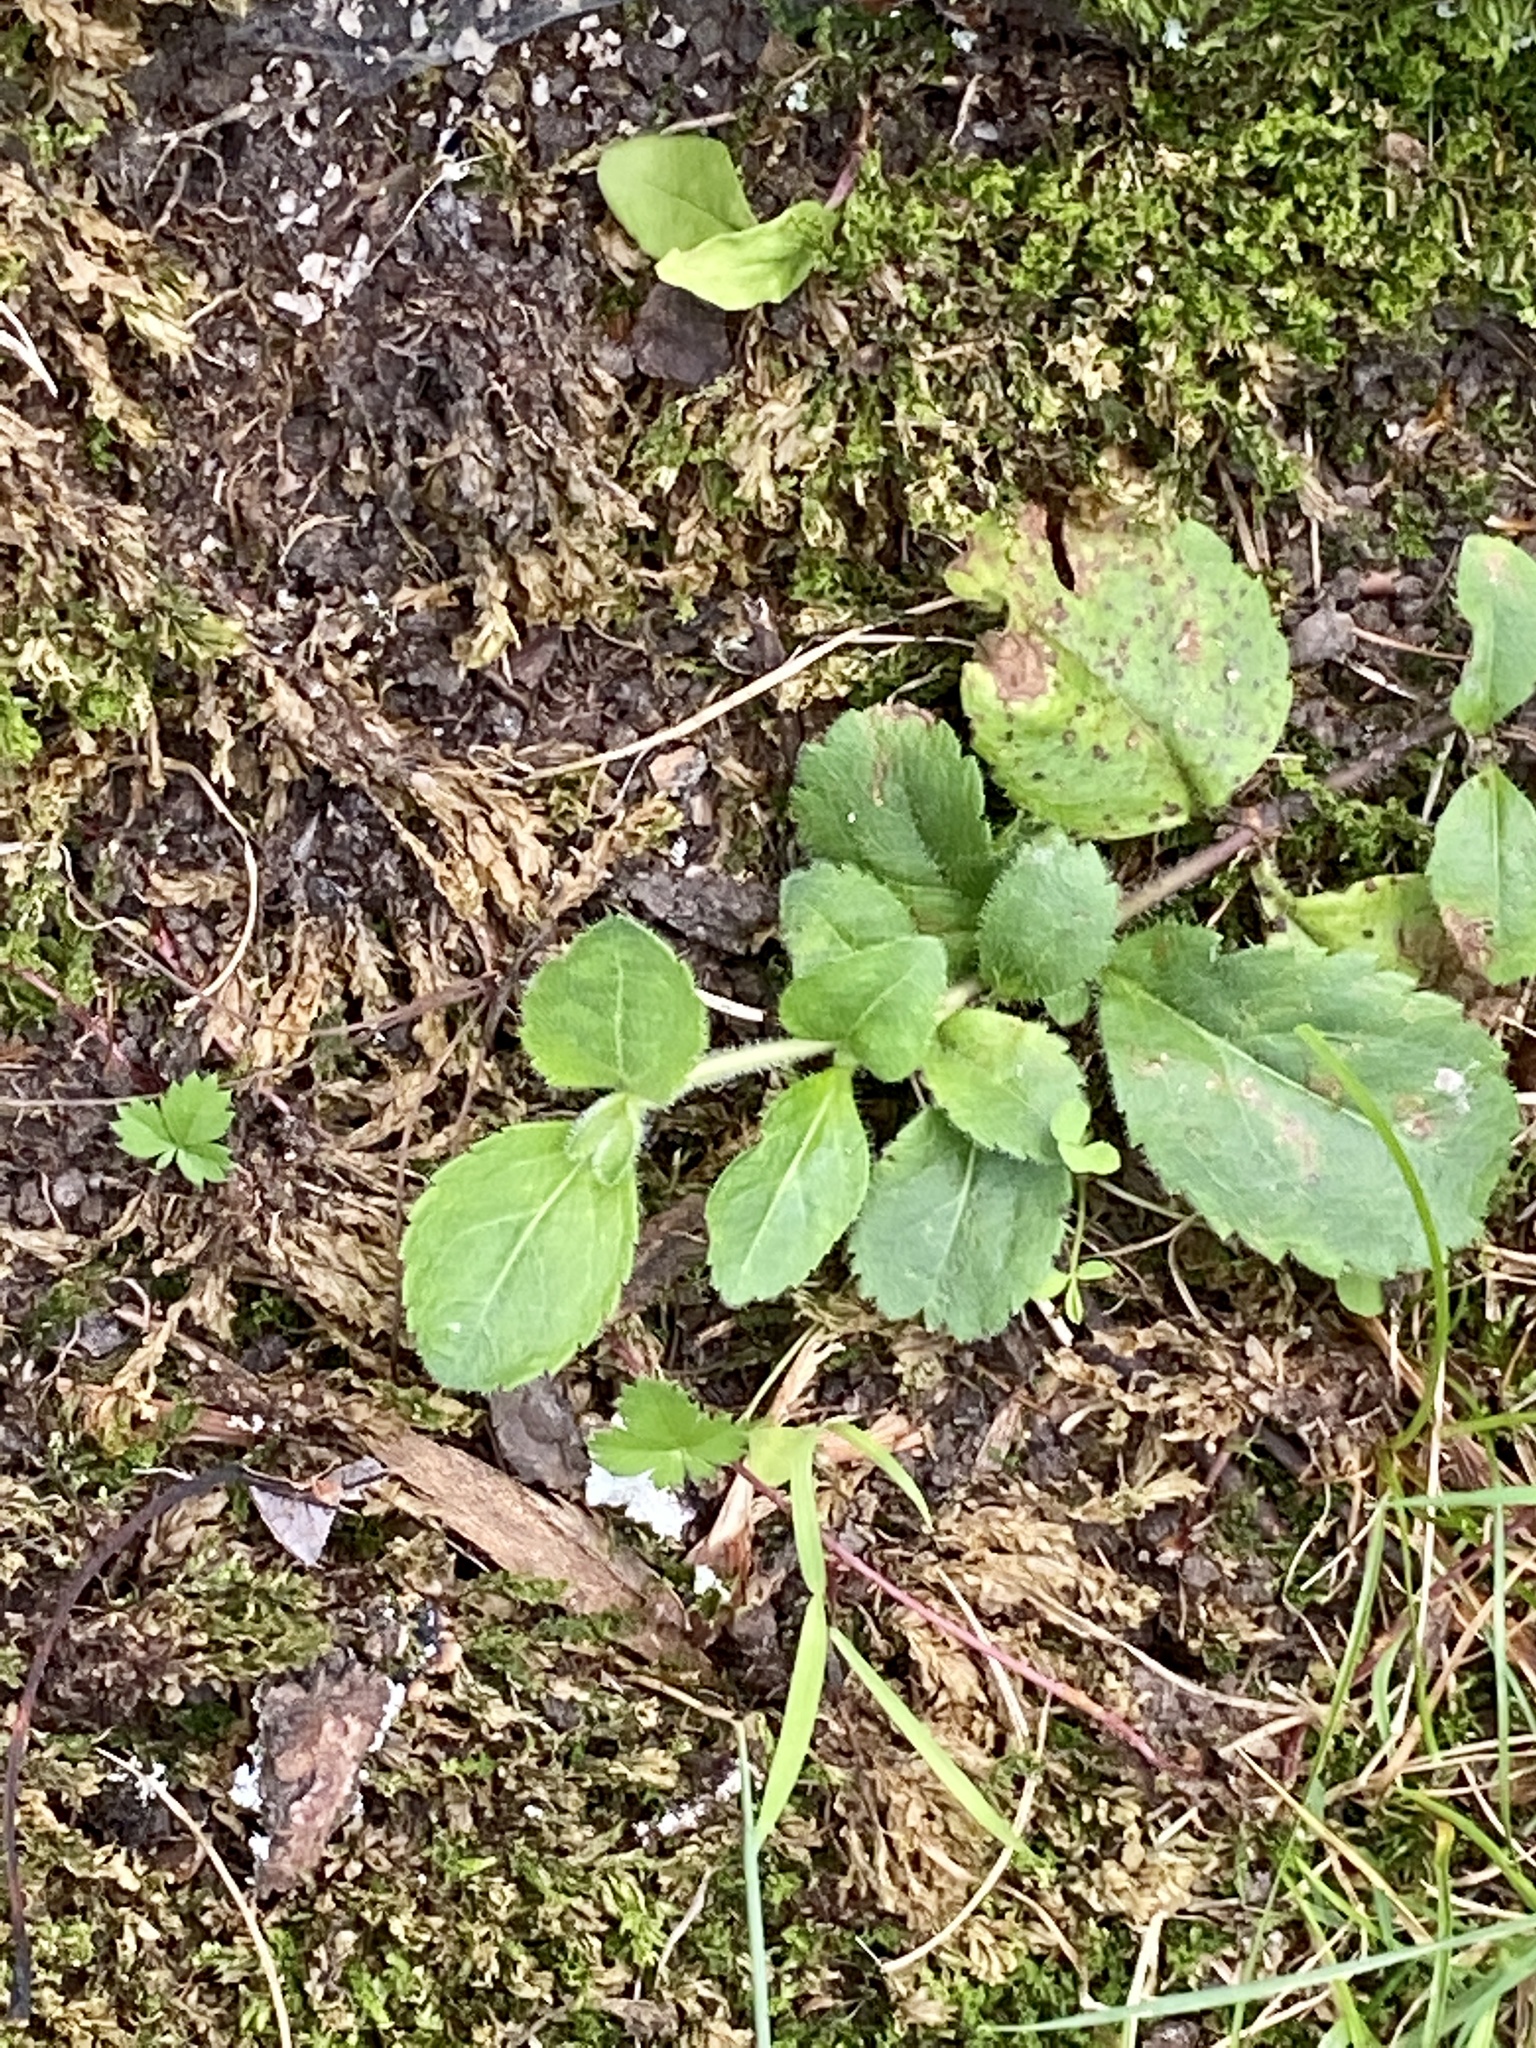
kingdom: Plantae
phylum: Tracheophyta
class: Magnoliopsida
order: Lamiales
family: Plantaginaceae
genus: Veronica
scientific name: Veronica officinalis
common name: Common speedwell
